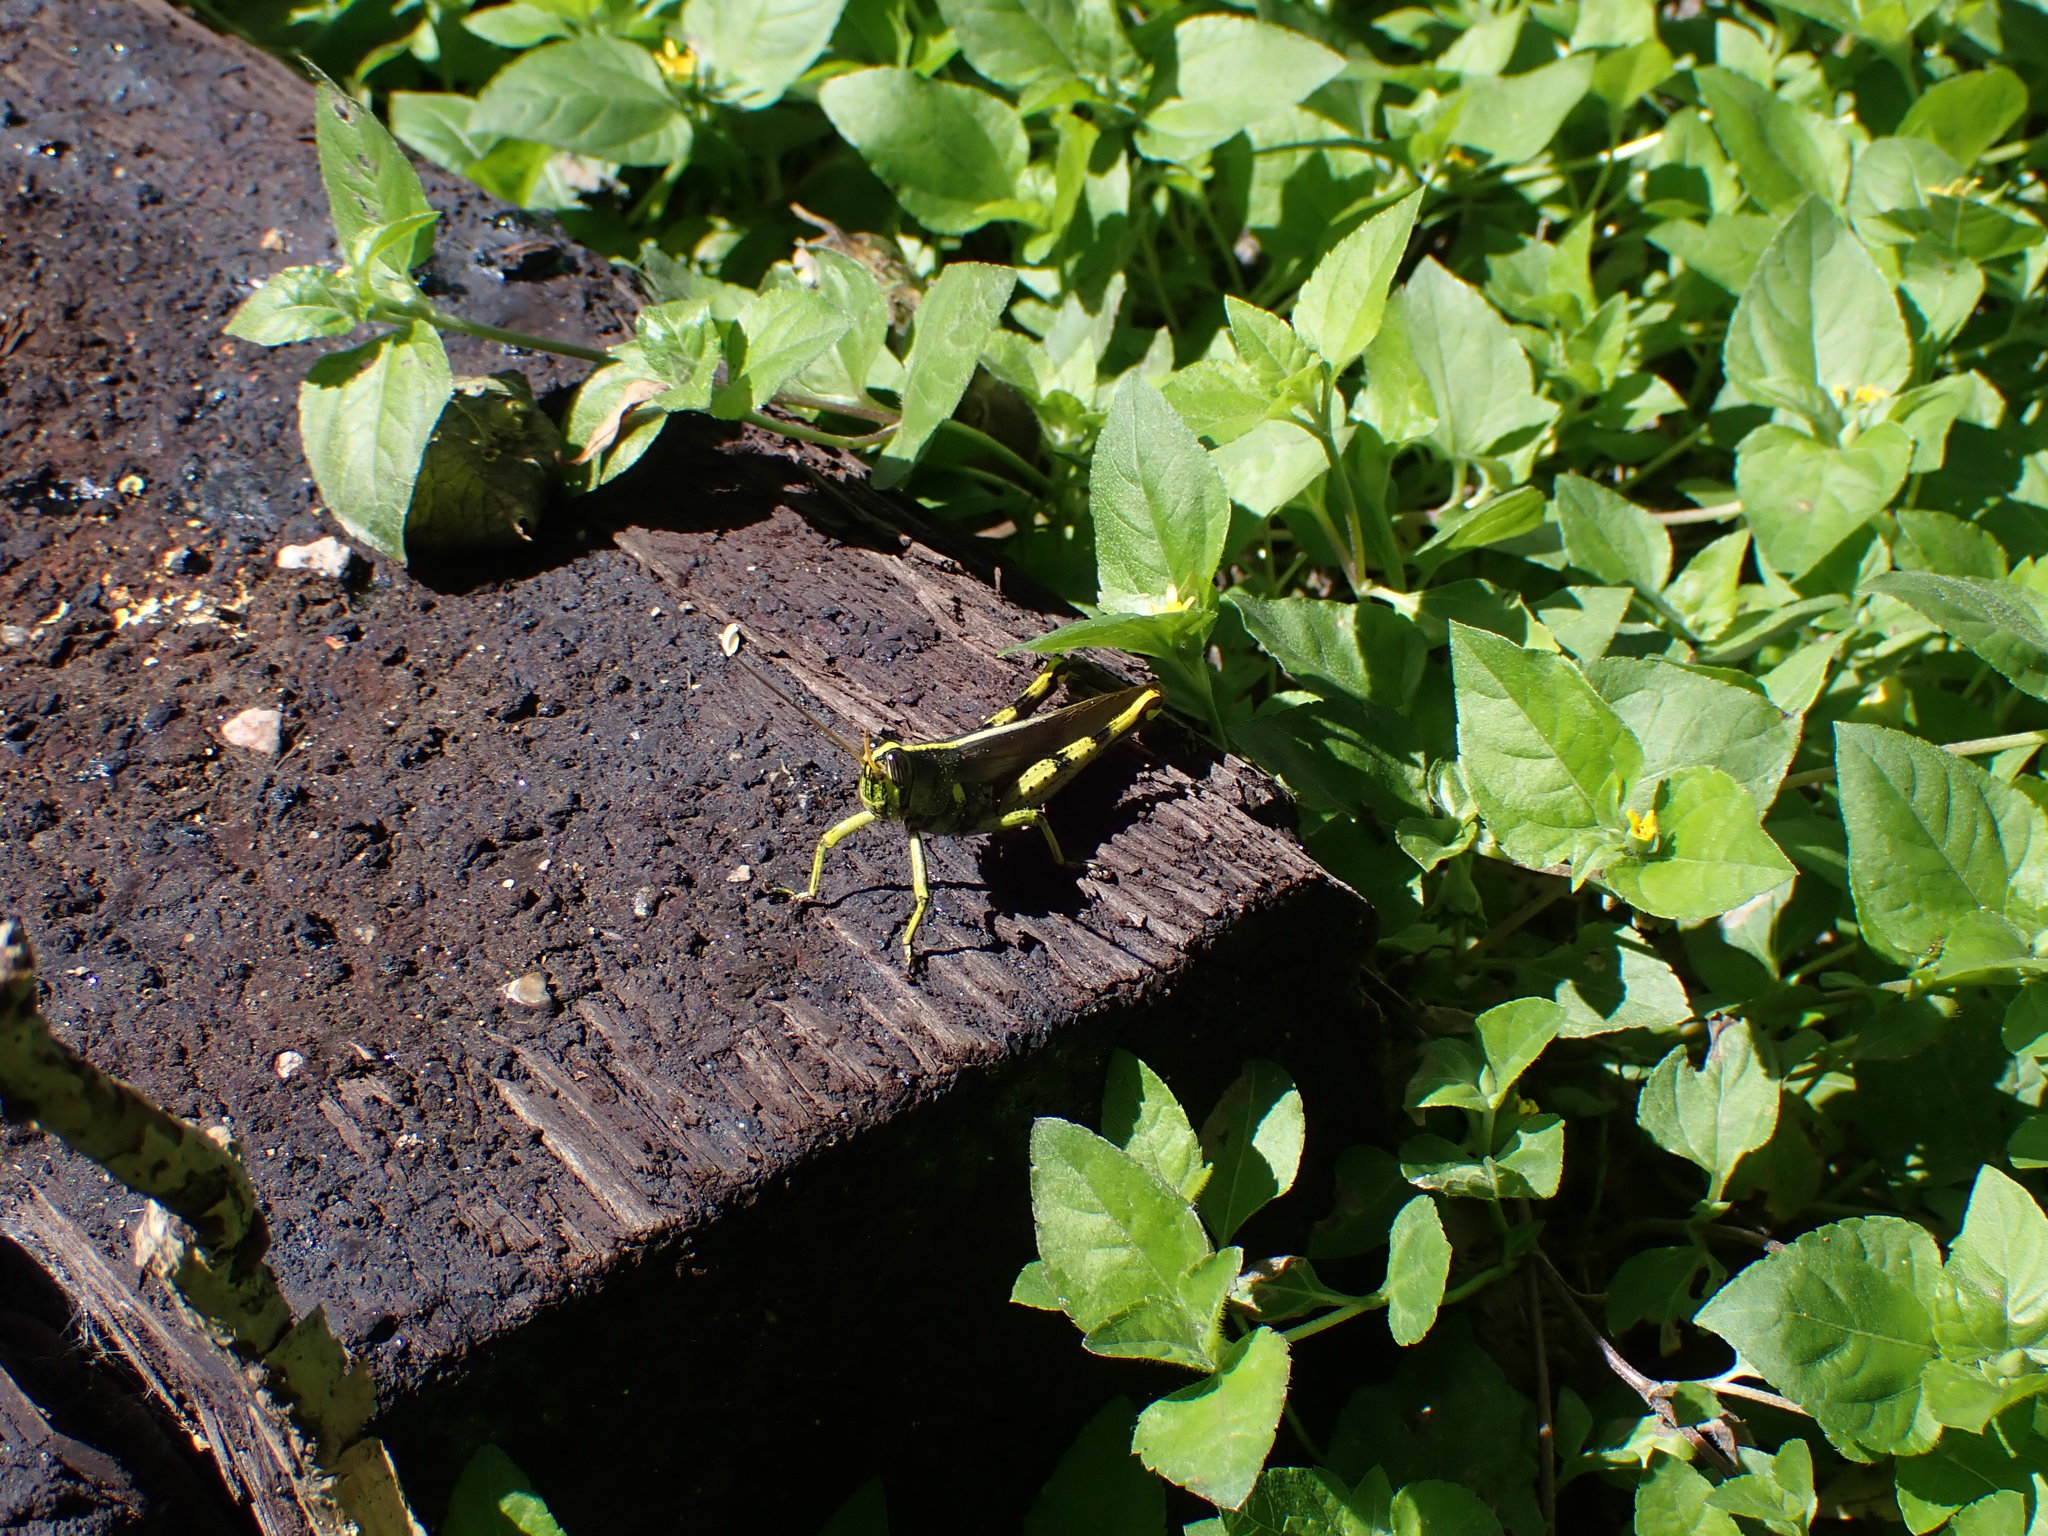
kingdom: Animalia
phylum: Arthropoda
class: Insecta
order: Orthoptera
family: Acrididae
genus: Schistocerca
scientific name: Schistocerca obscura
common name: Obscure bird grasshopper
